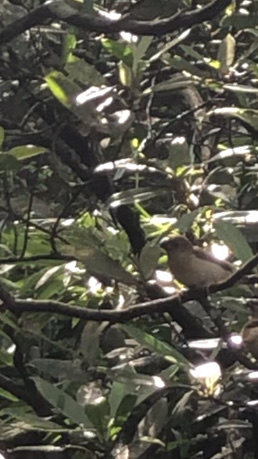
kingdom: Animalia
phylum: Chordata
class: Aves
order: Passeriformes
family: Estrildidae
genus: Lonchura
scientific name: Lonchura punctulata
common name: Scaly-breasted munia
